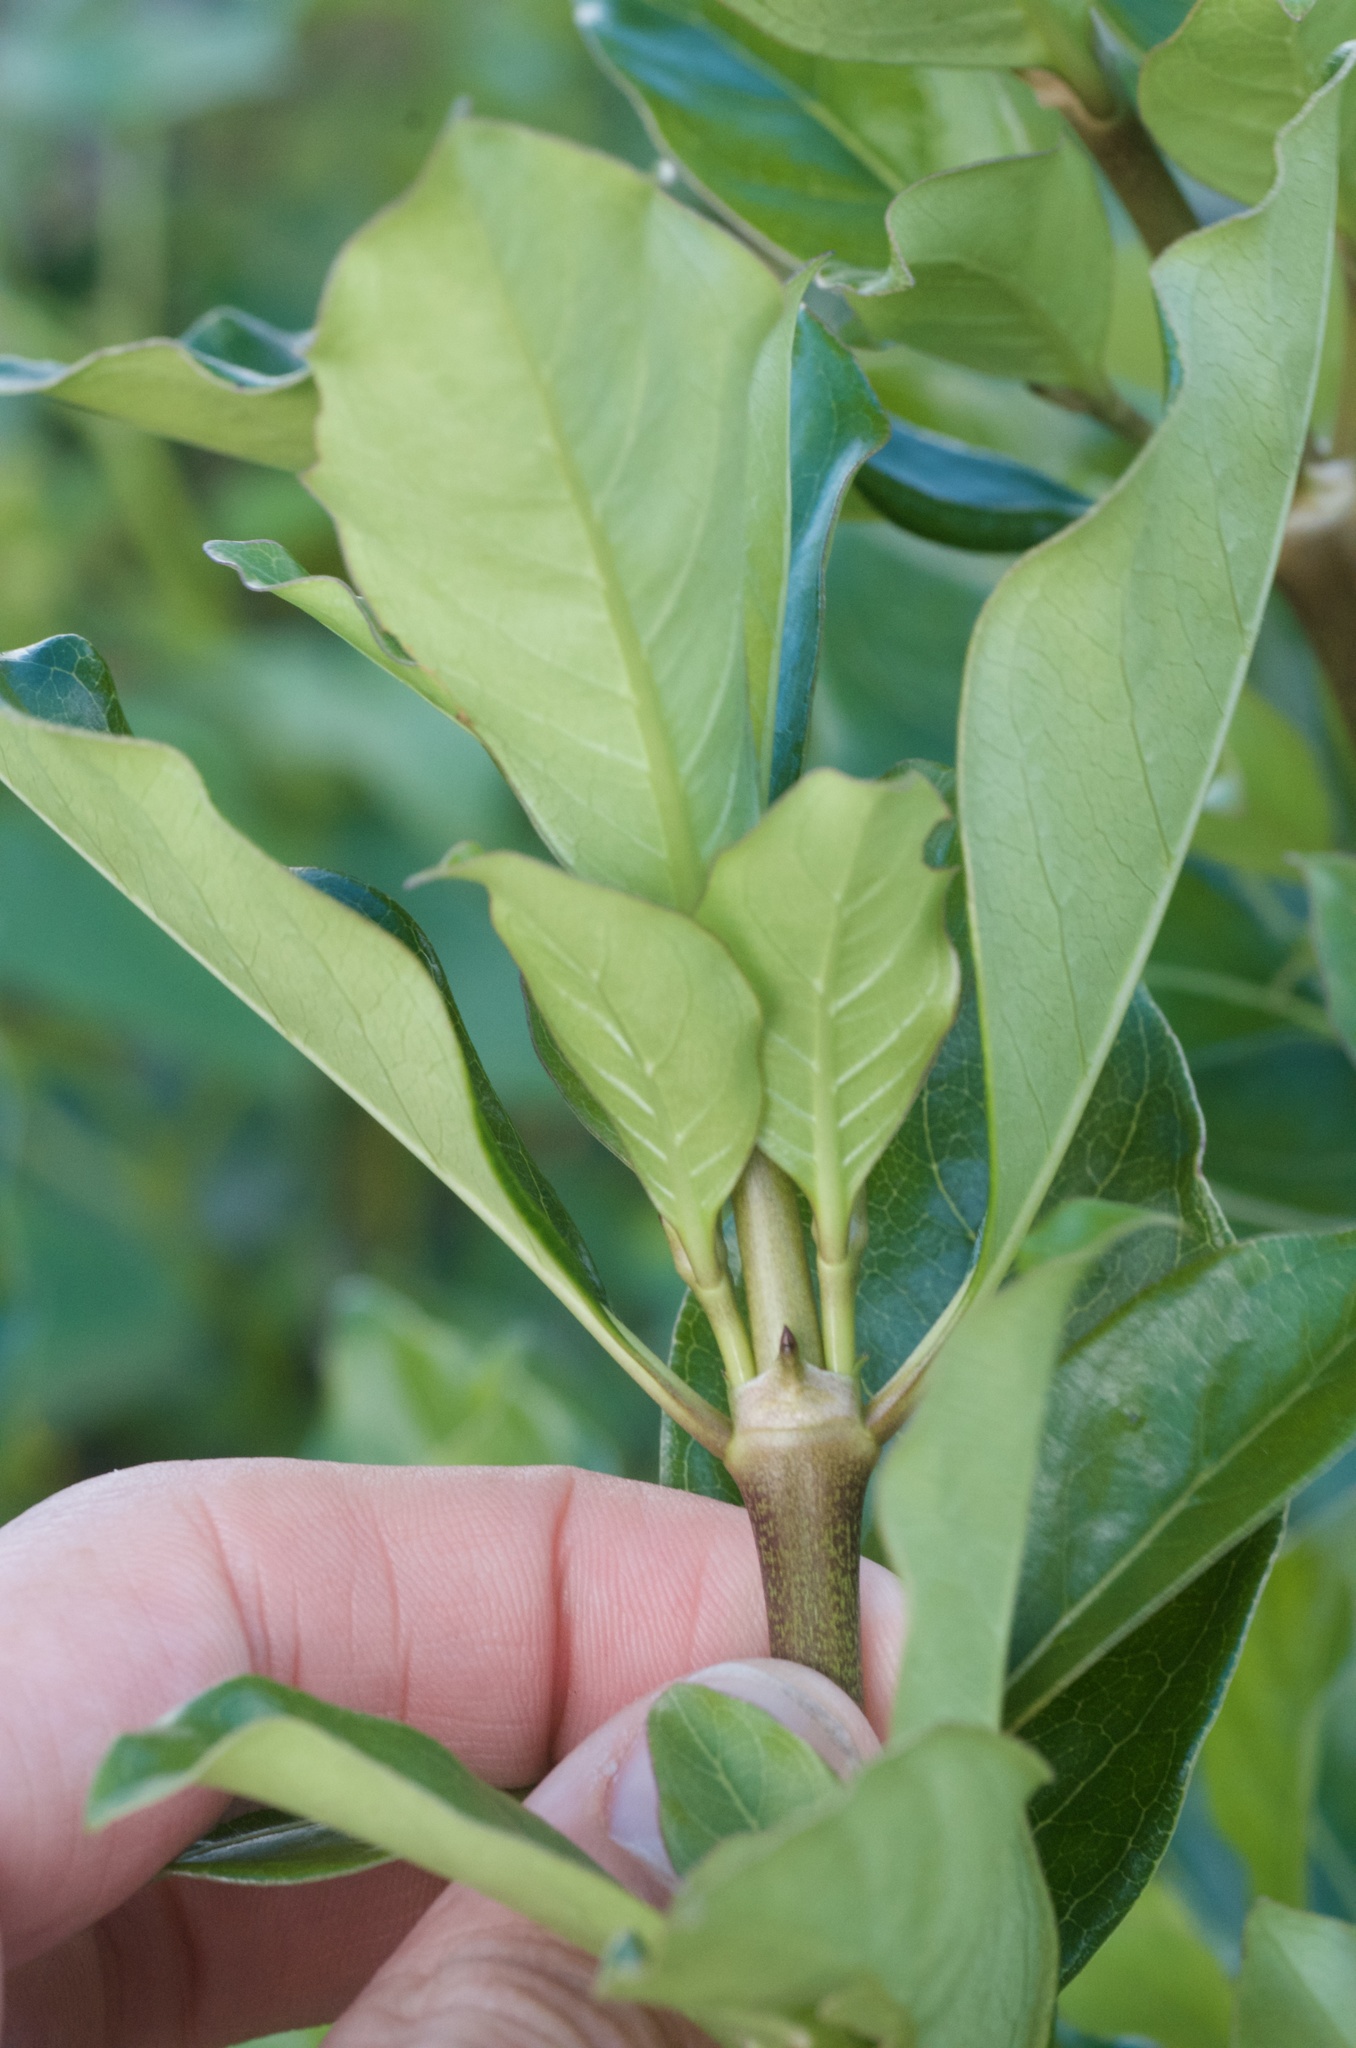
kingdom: Plantae
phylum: Tracheophyta
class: Magnoliopsida
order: Gentianales
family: Rubiaceae
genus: Coprosma
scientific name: Coprosma robusta
